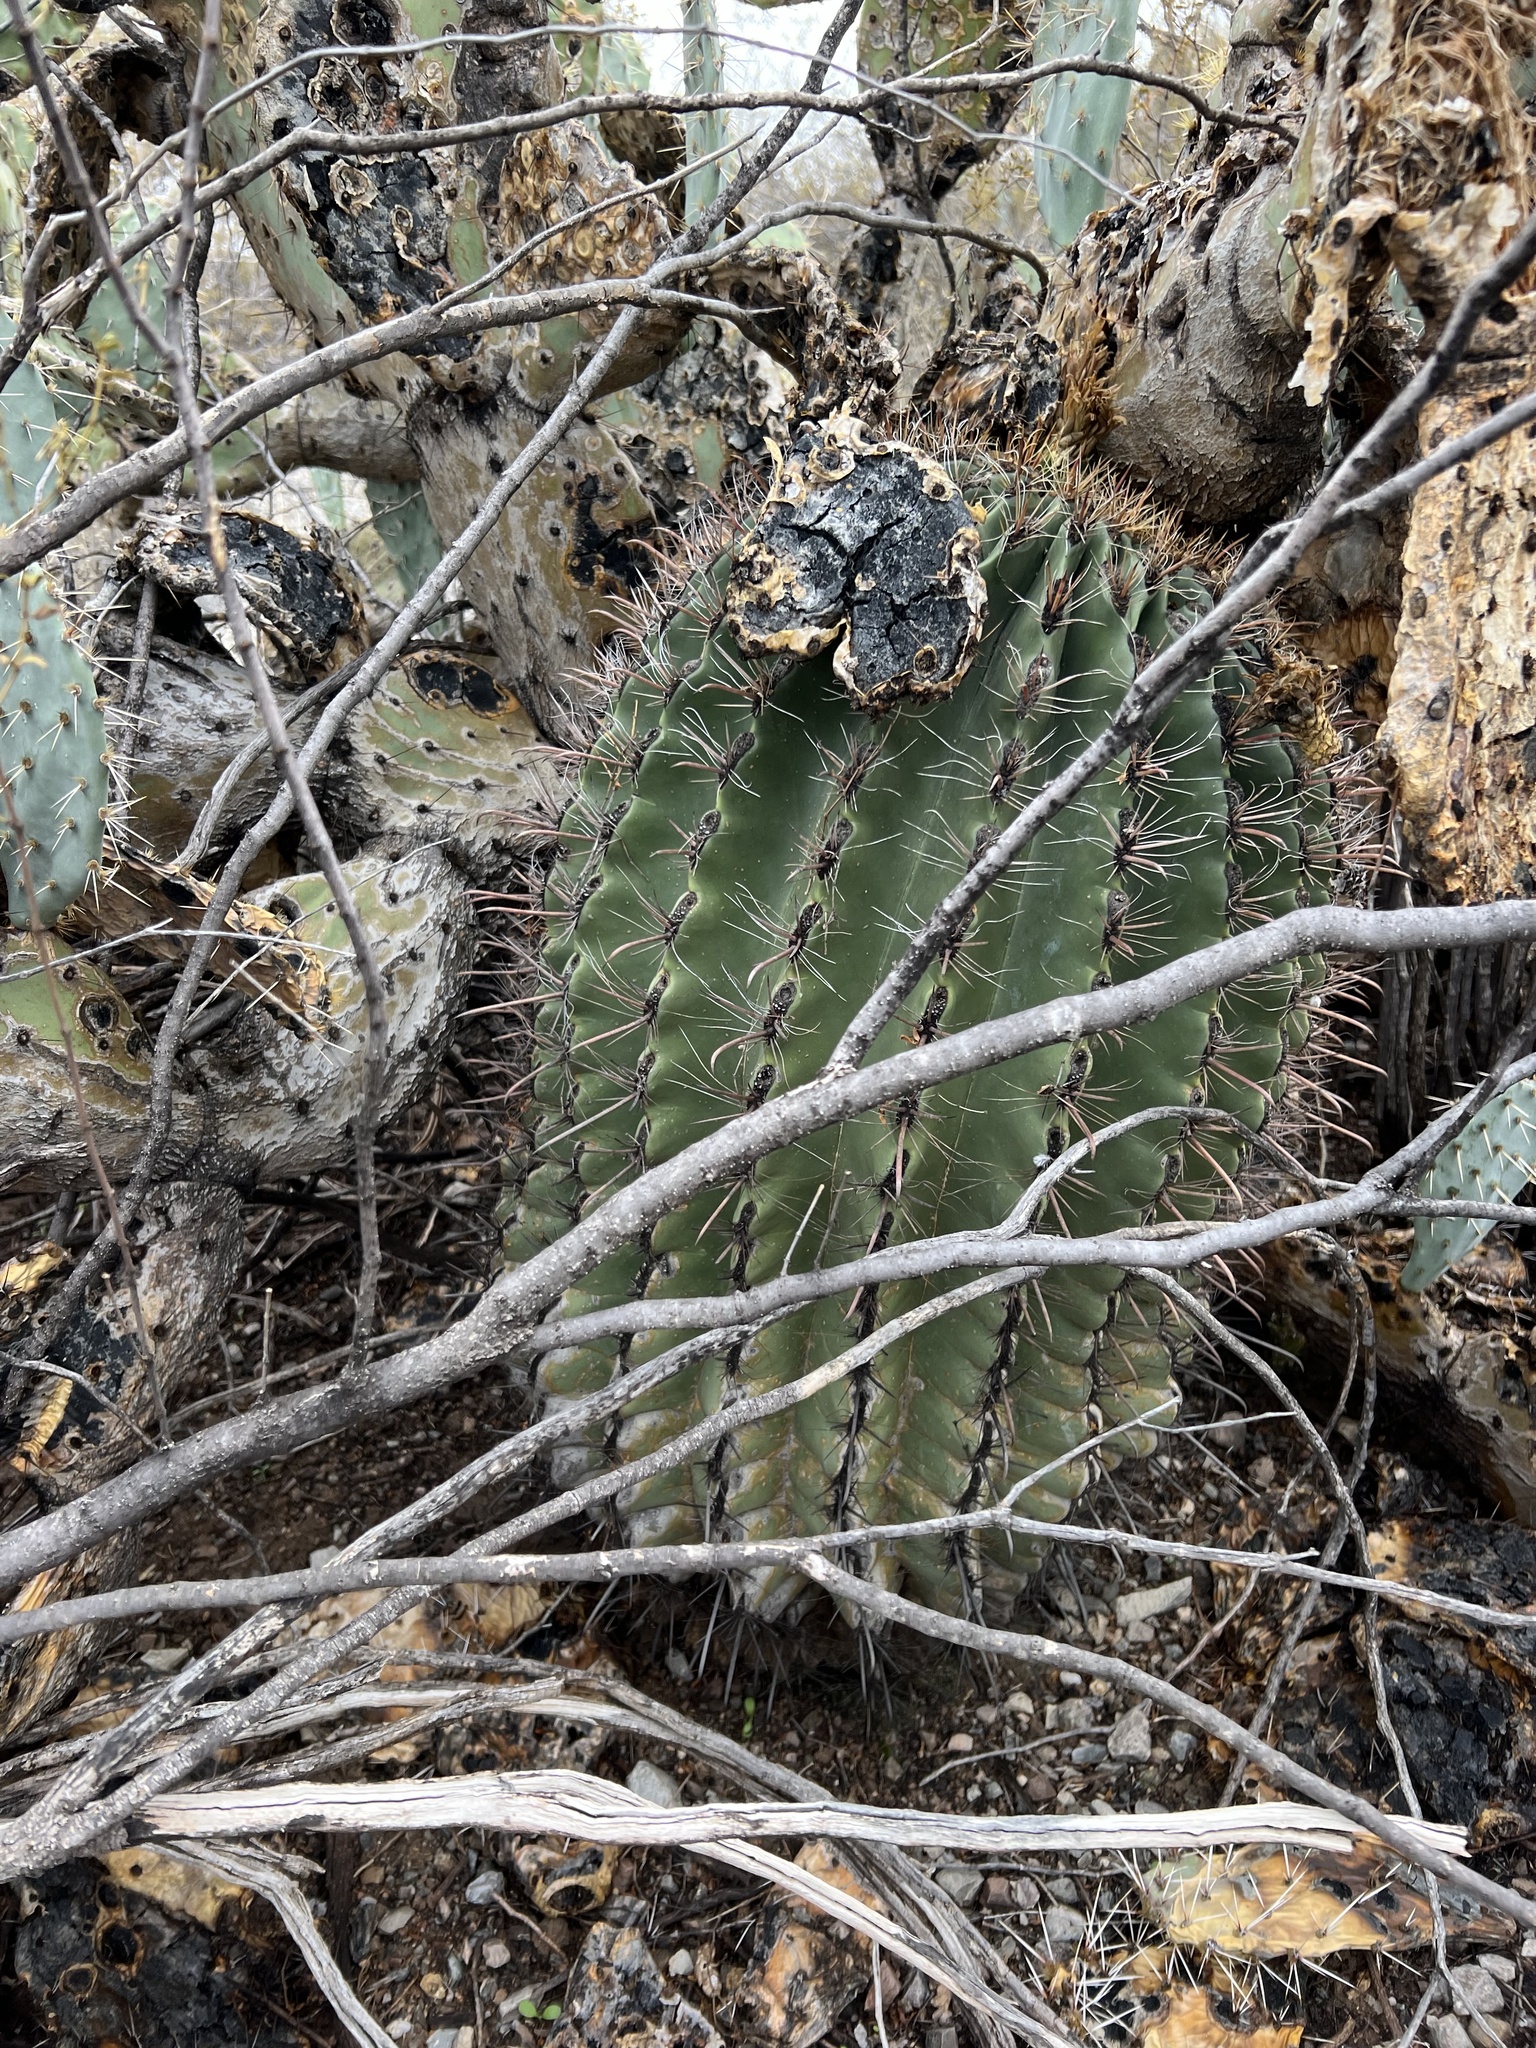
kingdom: Plantae
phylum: Tracheophyta
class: Magnoliopsida
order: Caryophyllales
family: Cactaceae
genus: Ferocactus
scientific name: Ferocactus wislizeni
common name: Candy barrel cactus
